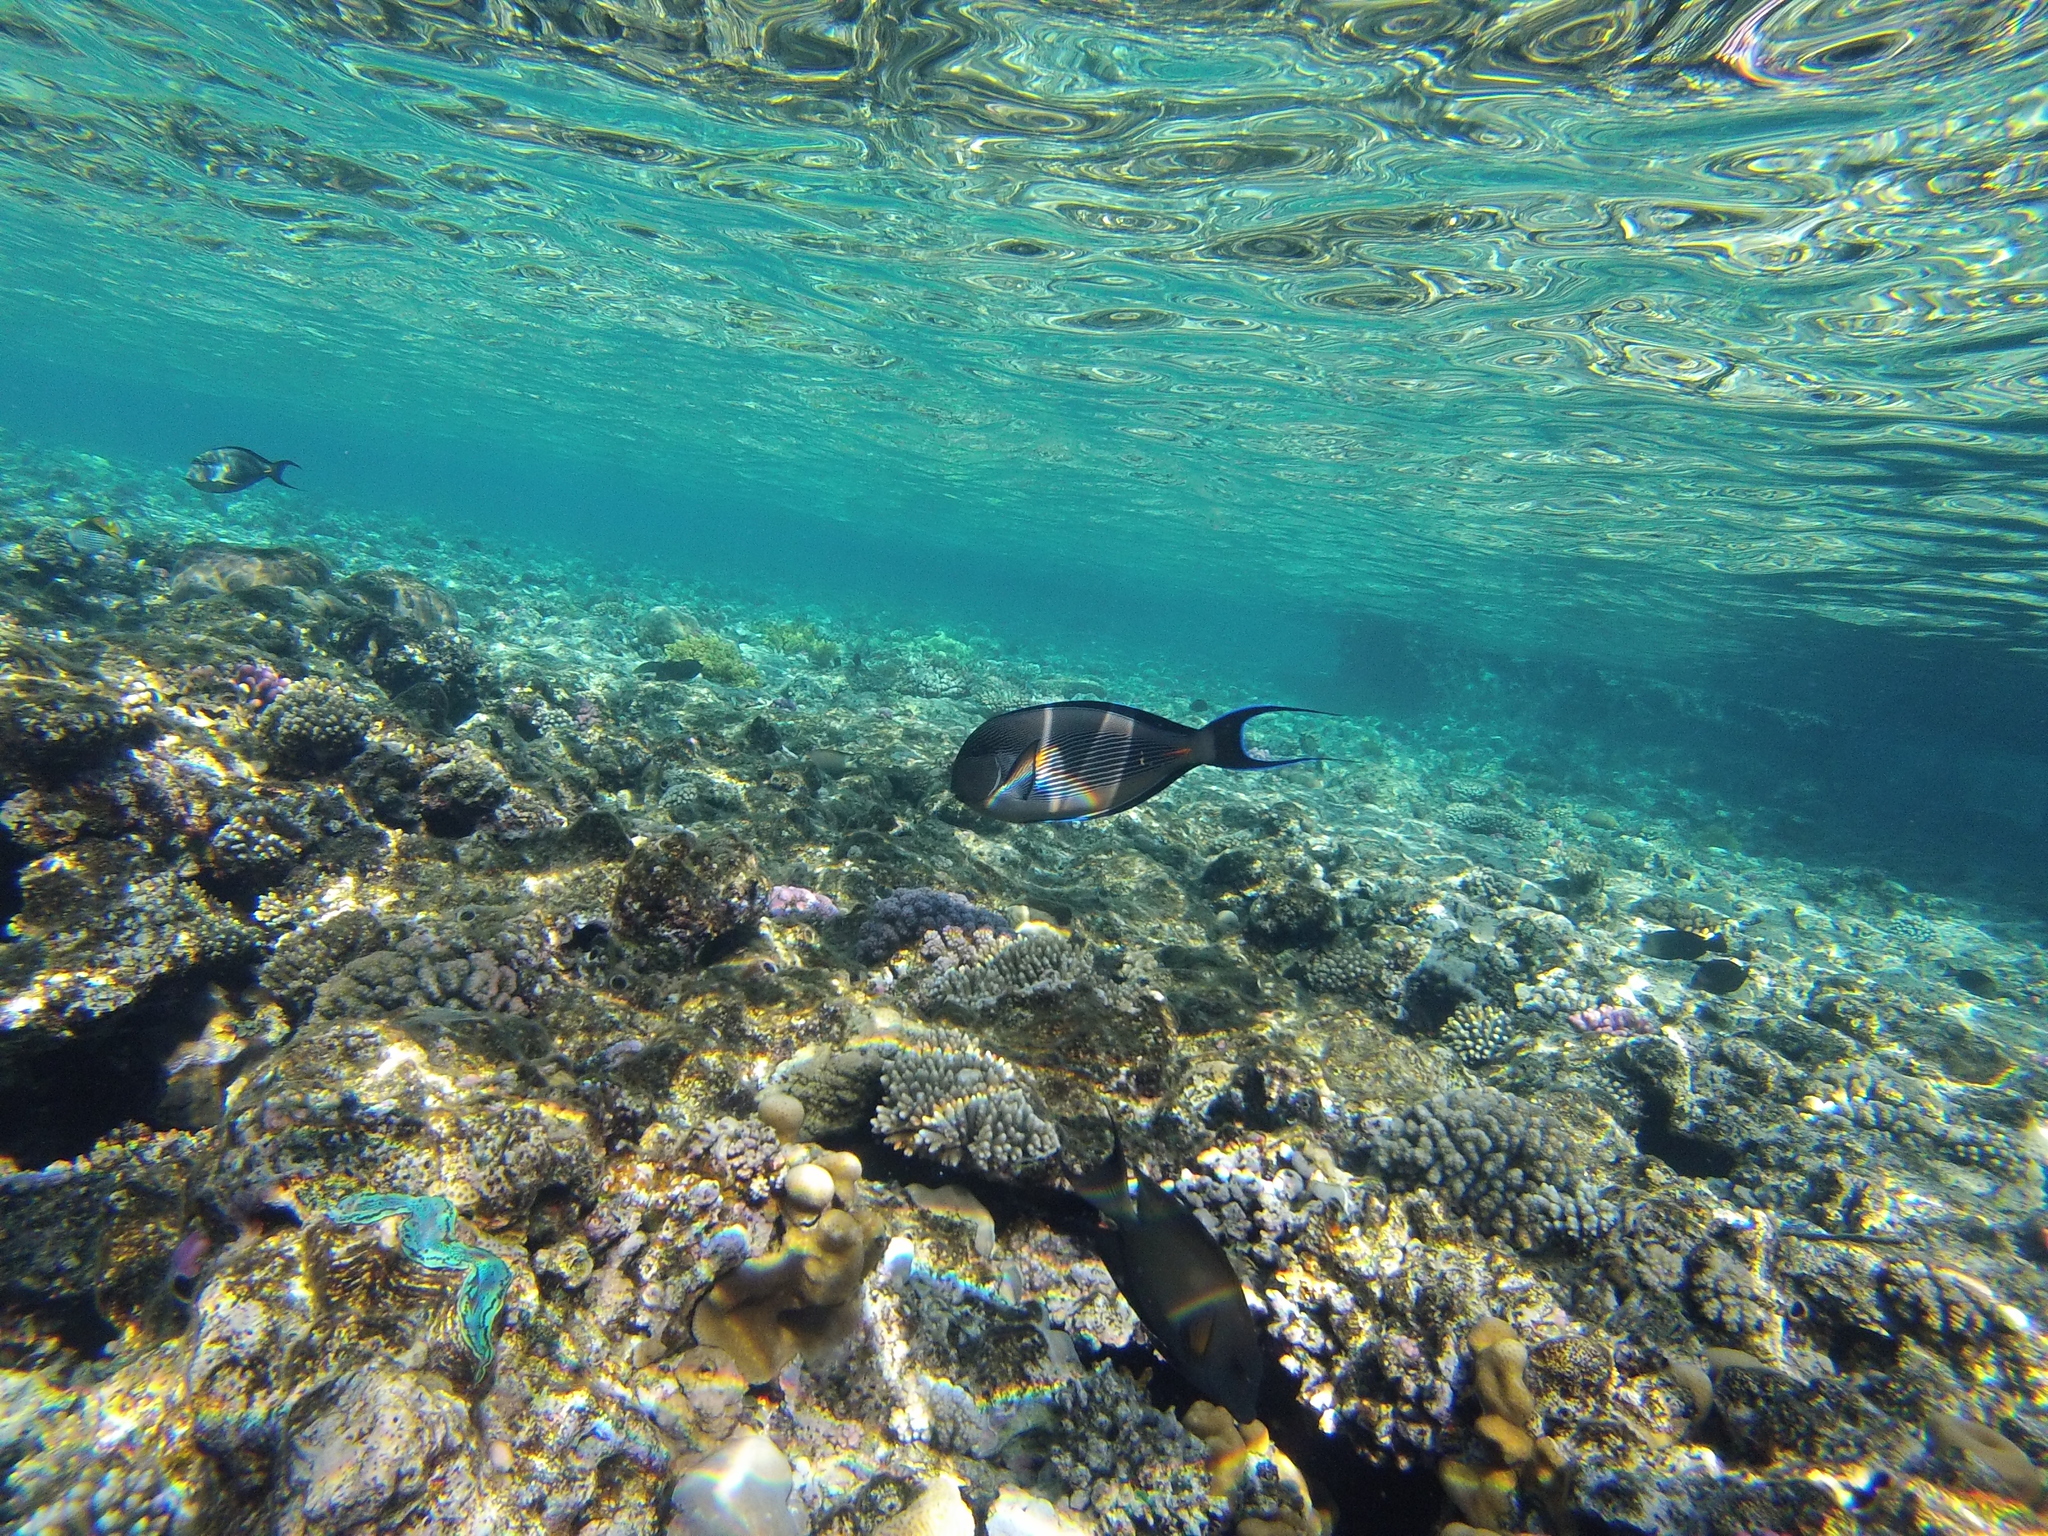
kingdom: Animalia
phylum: Chordata
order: Perciformes
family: Acanthuridae
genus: Acanthurus
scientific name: Acanthurus sohal
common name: Red sea surgeonfish
